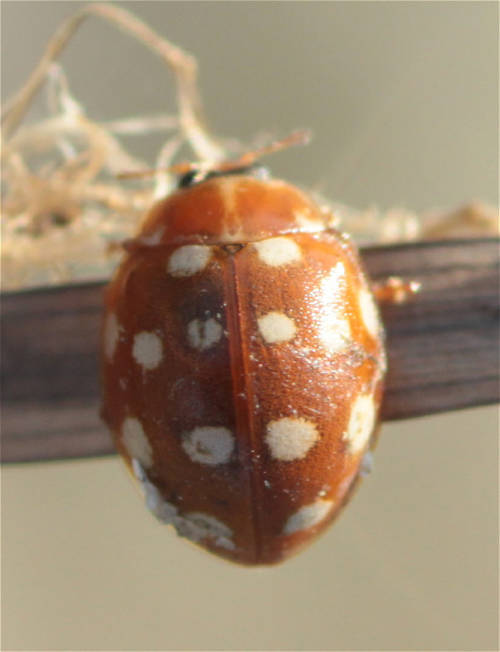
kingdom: Animalia
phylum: Arthropoda
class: Insecta
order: Coleoptera
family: Coccinellidae
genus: Calvia
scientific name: Calvia quatuordecimguttata
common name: Cream-spot ladybird
